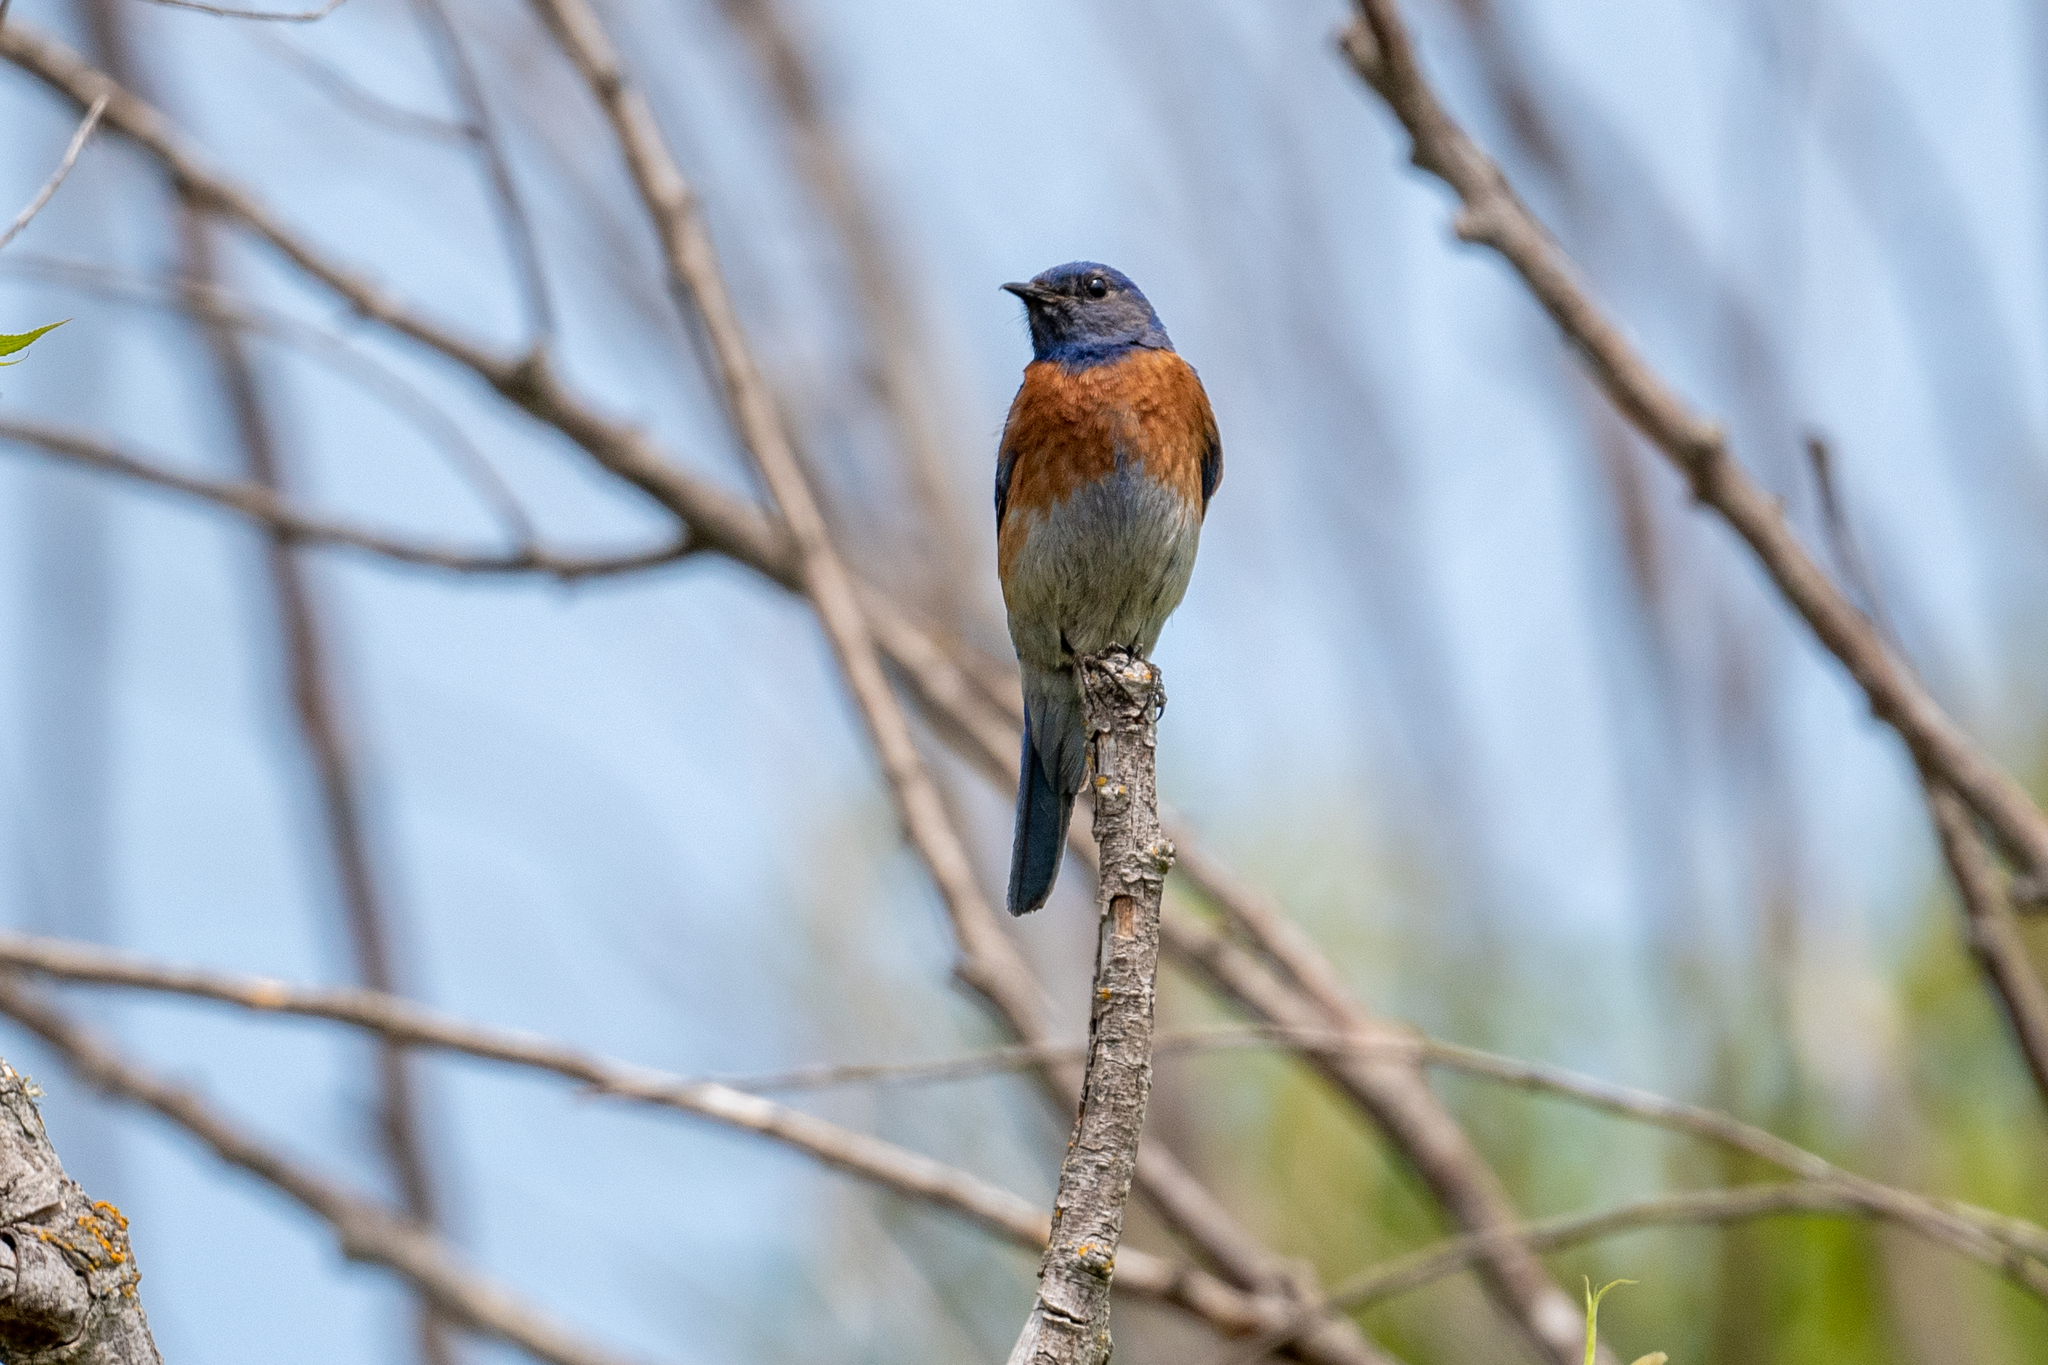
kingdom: Animalia
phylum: Chordata
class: Aves
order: Passeriformes
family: Turdidae
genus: Sialia
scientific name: Sialia mexicana
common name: Western bluebird
